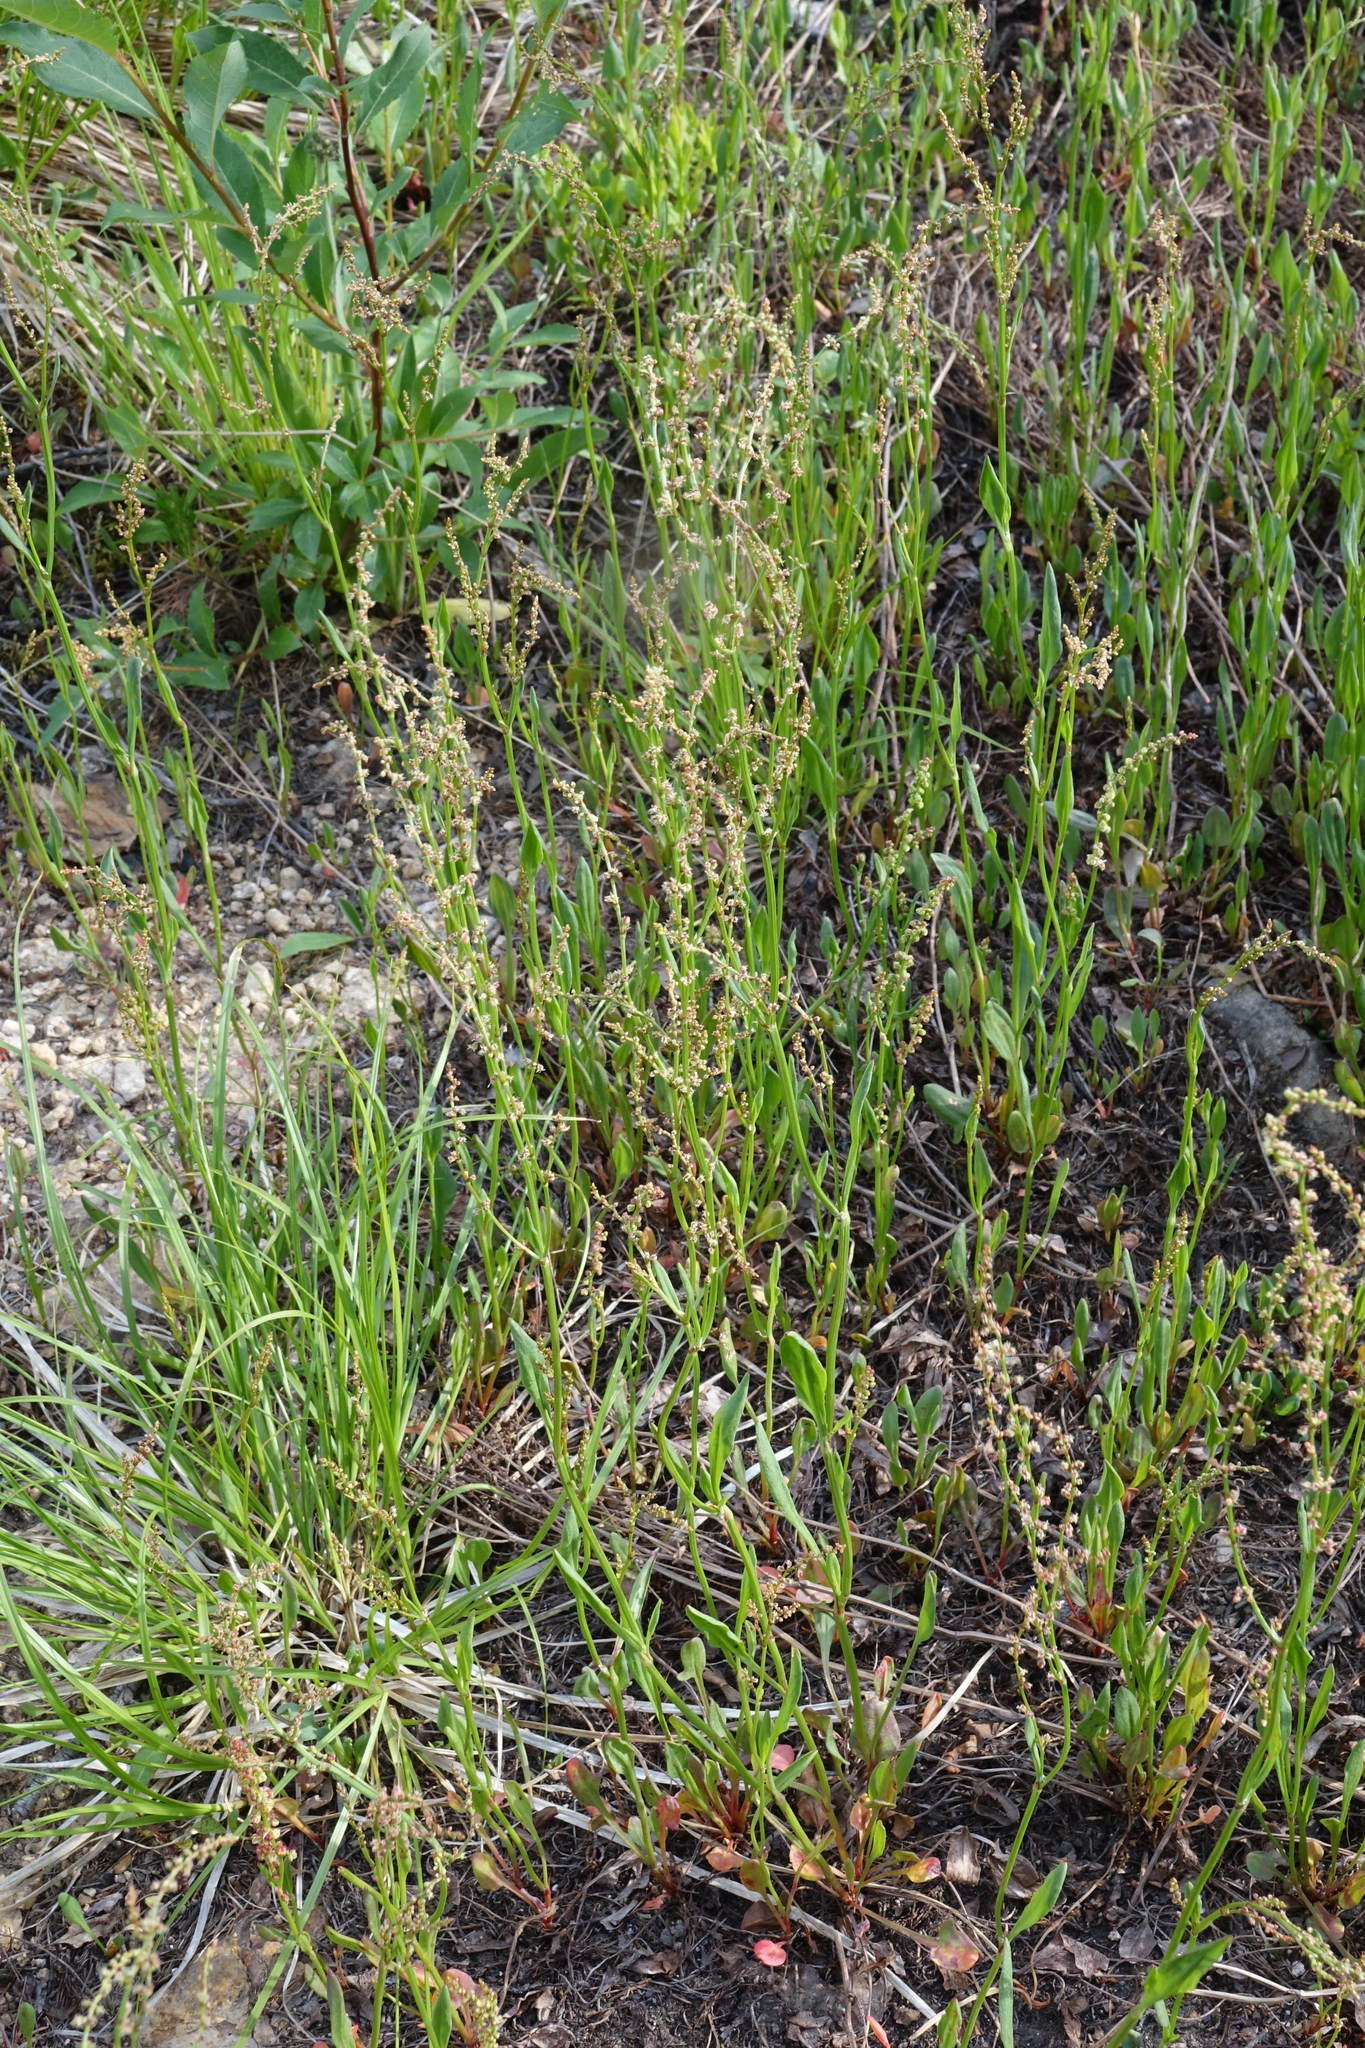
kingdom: Plantae
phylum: Tracheophyta
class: Magnoliopsida
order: Caryophyllales
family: Polygonaceae
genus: Rumex
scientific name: Rumex acetosella
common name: Common sheep sorrel
